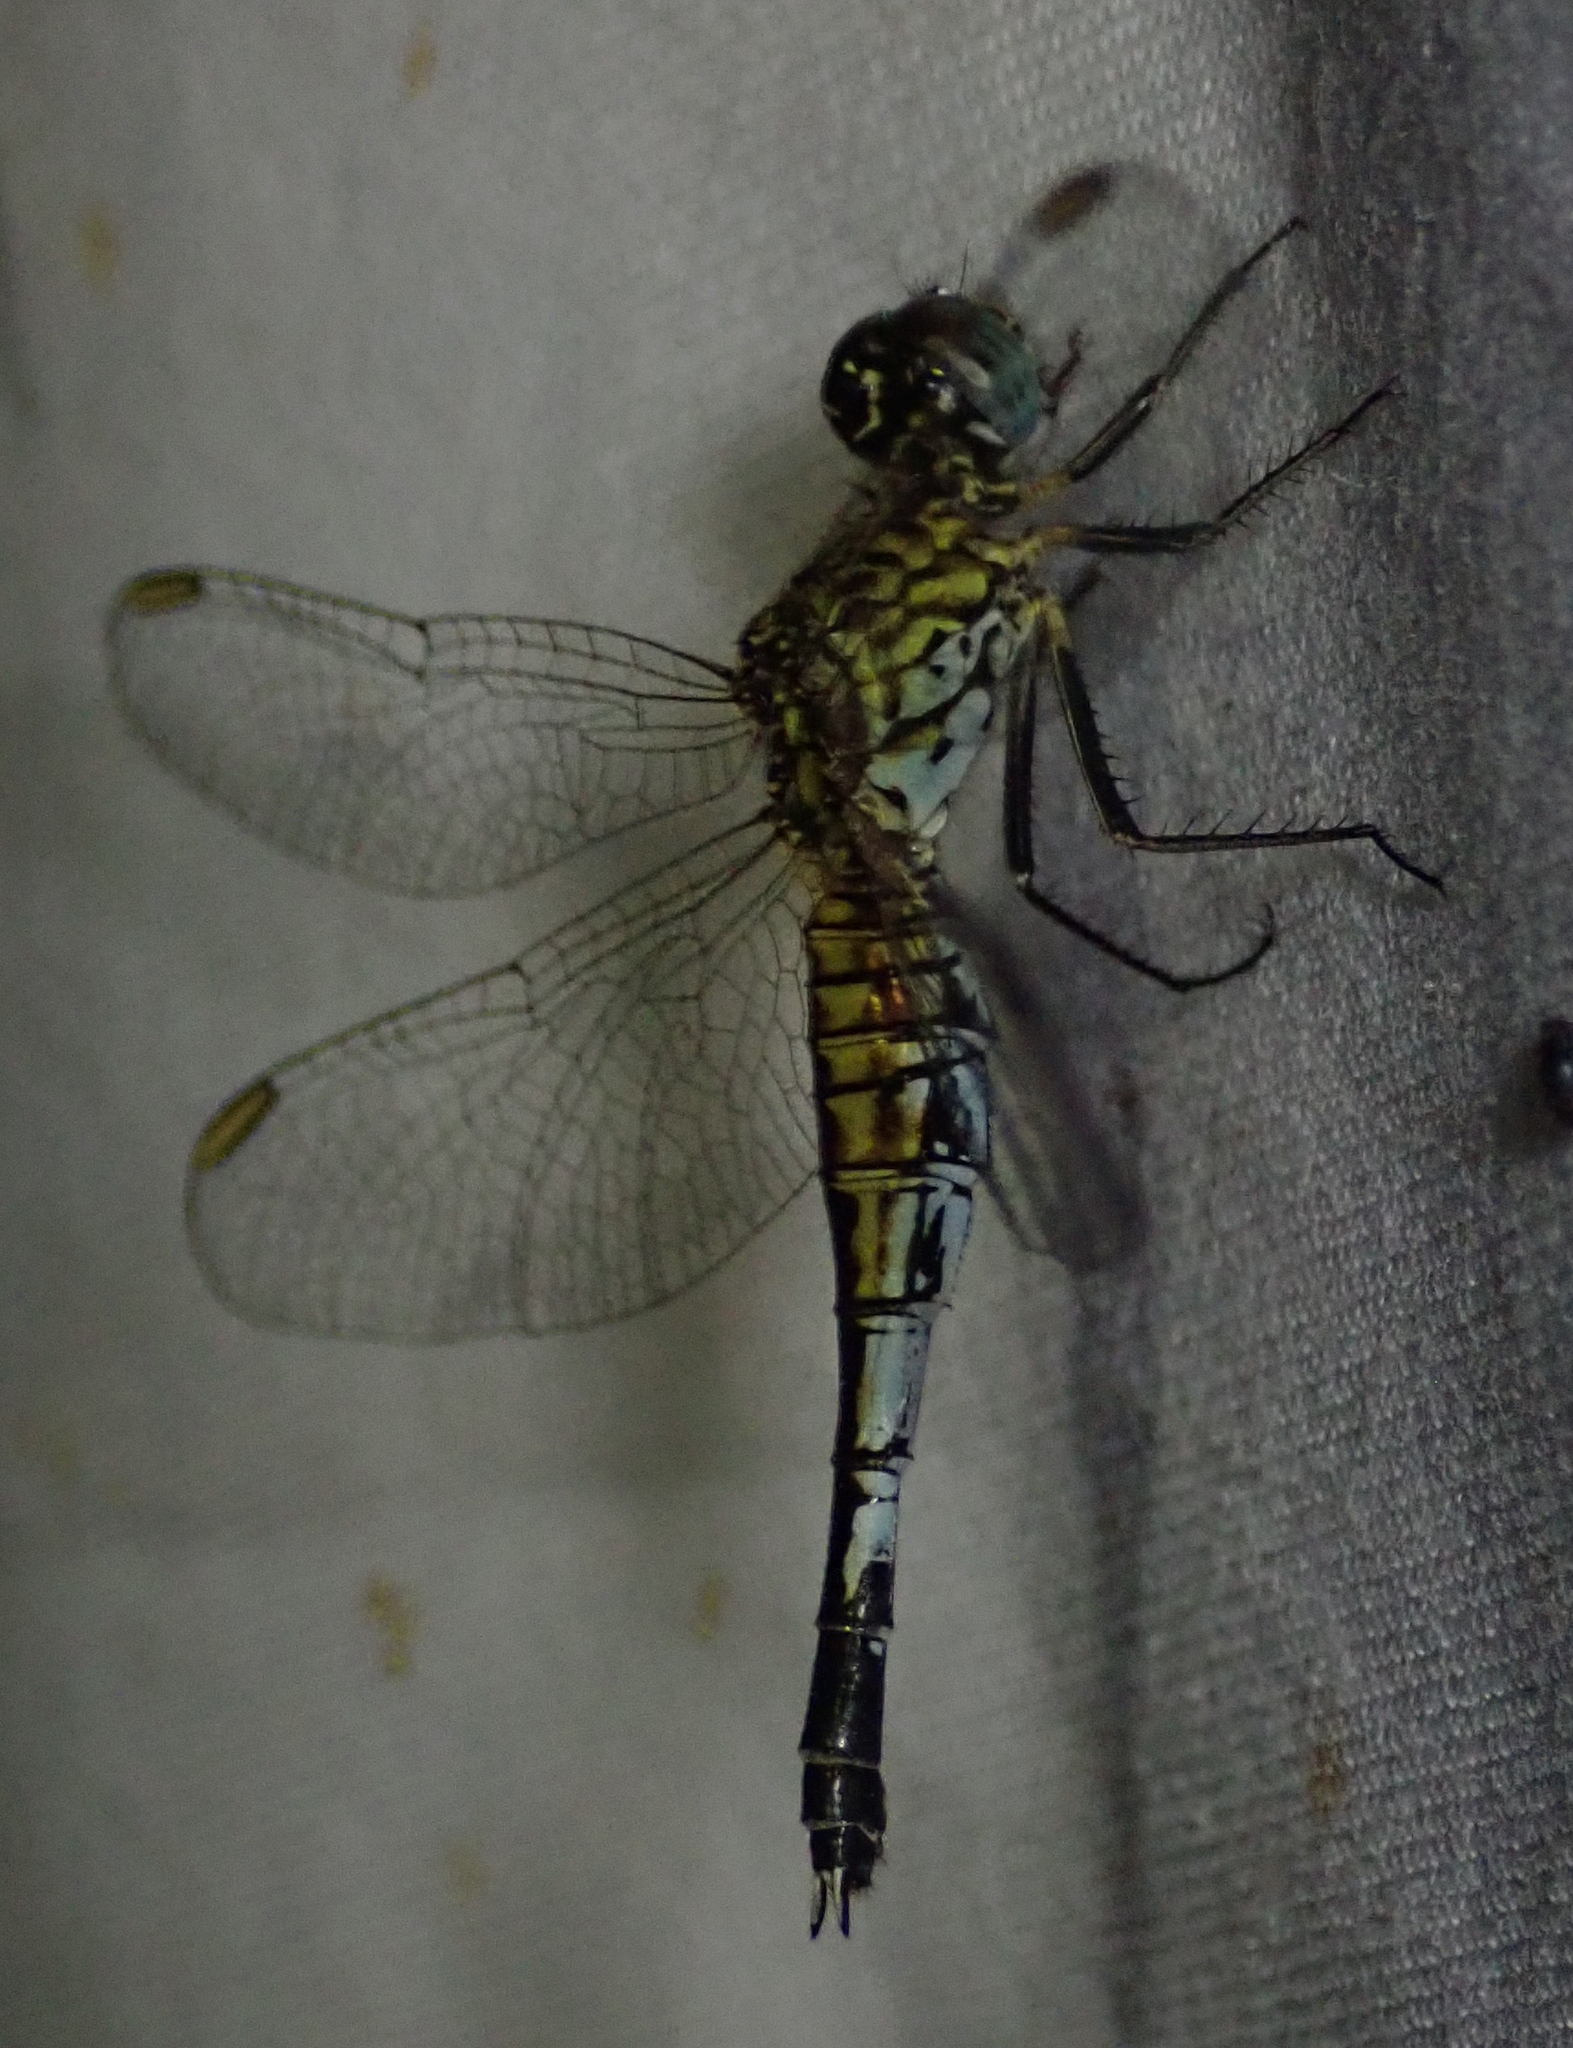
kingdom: Animalia
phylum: Arthropoda
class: Insecta
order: Odonata
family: Libellulidae
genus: Acisoma
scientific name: Acisoma inflatum
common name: Stout pintail
